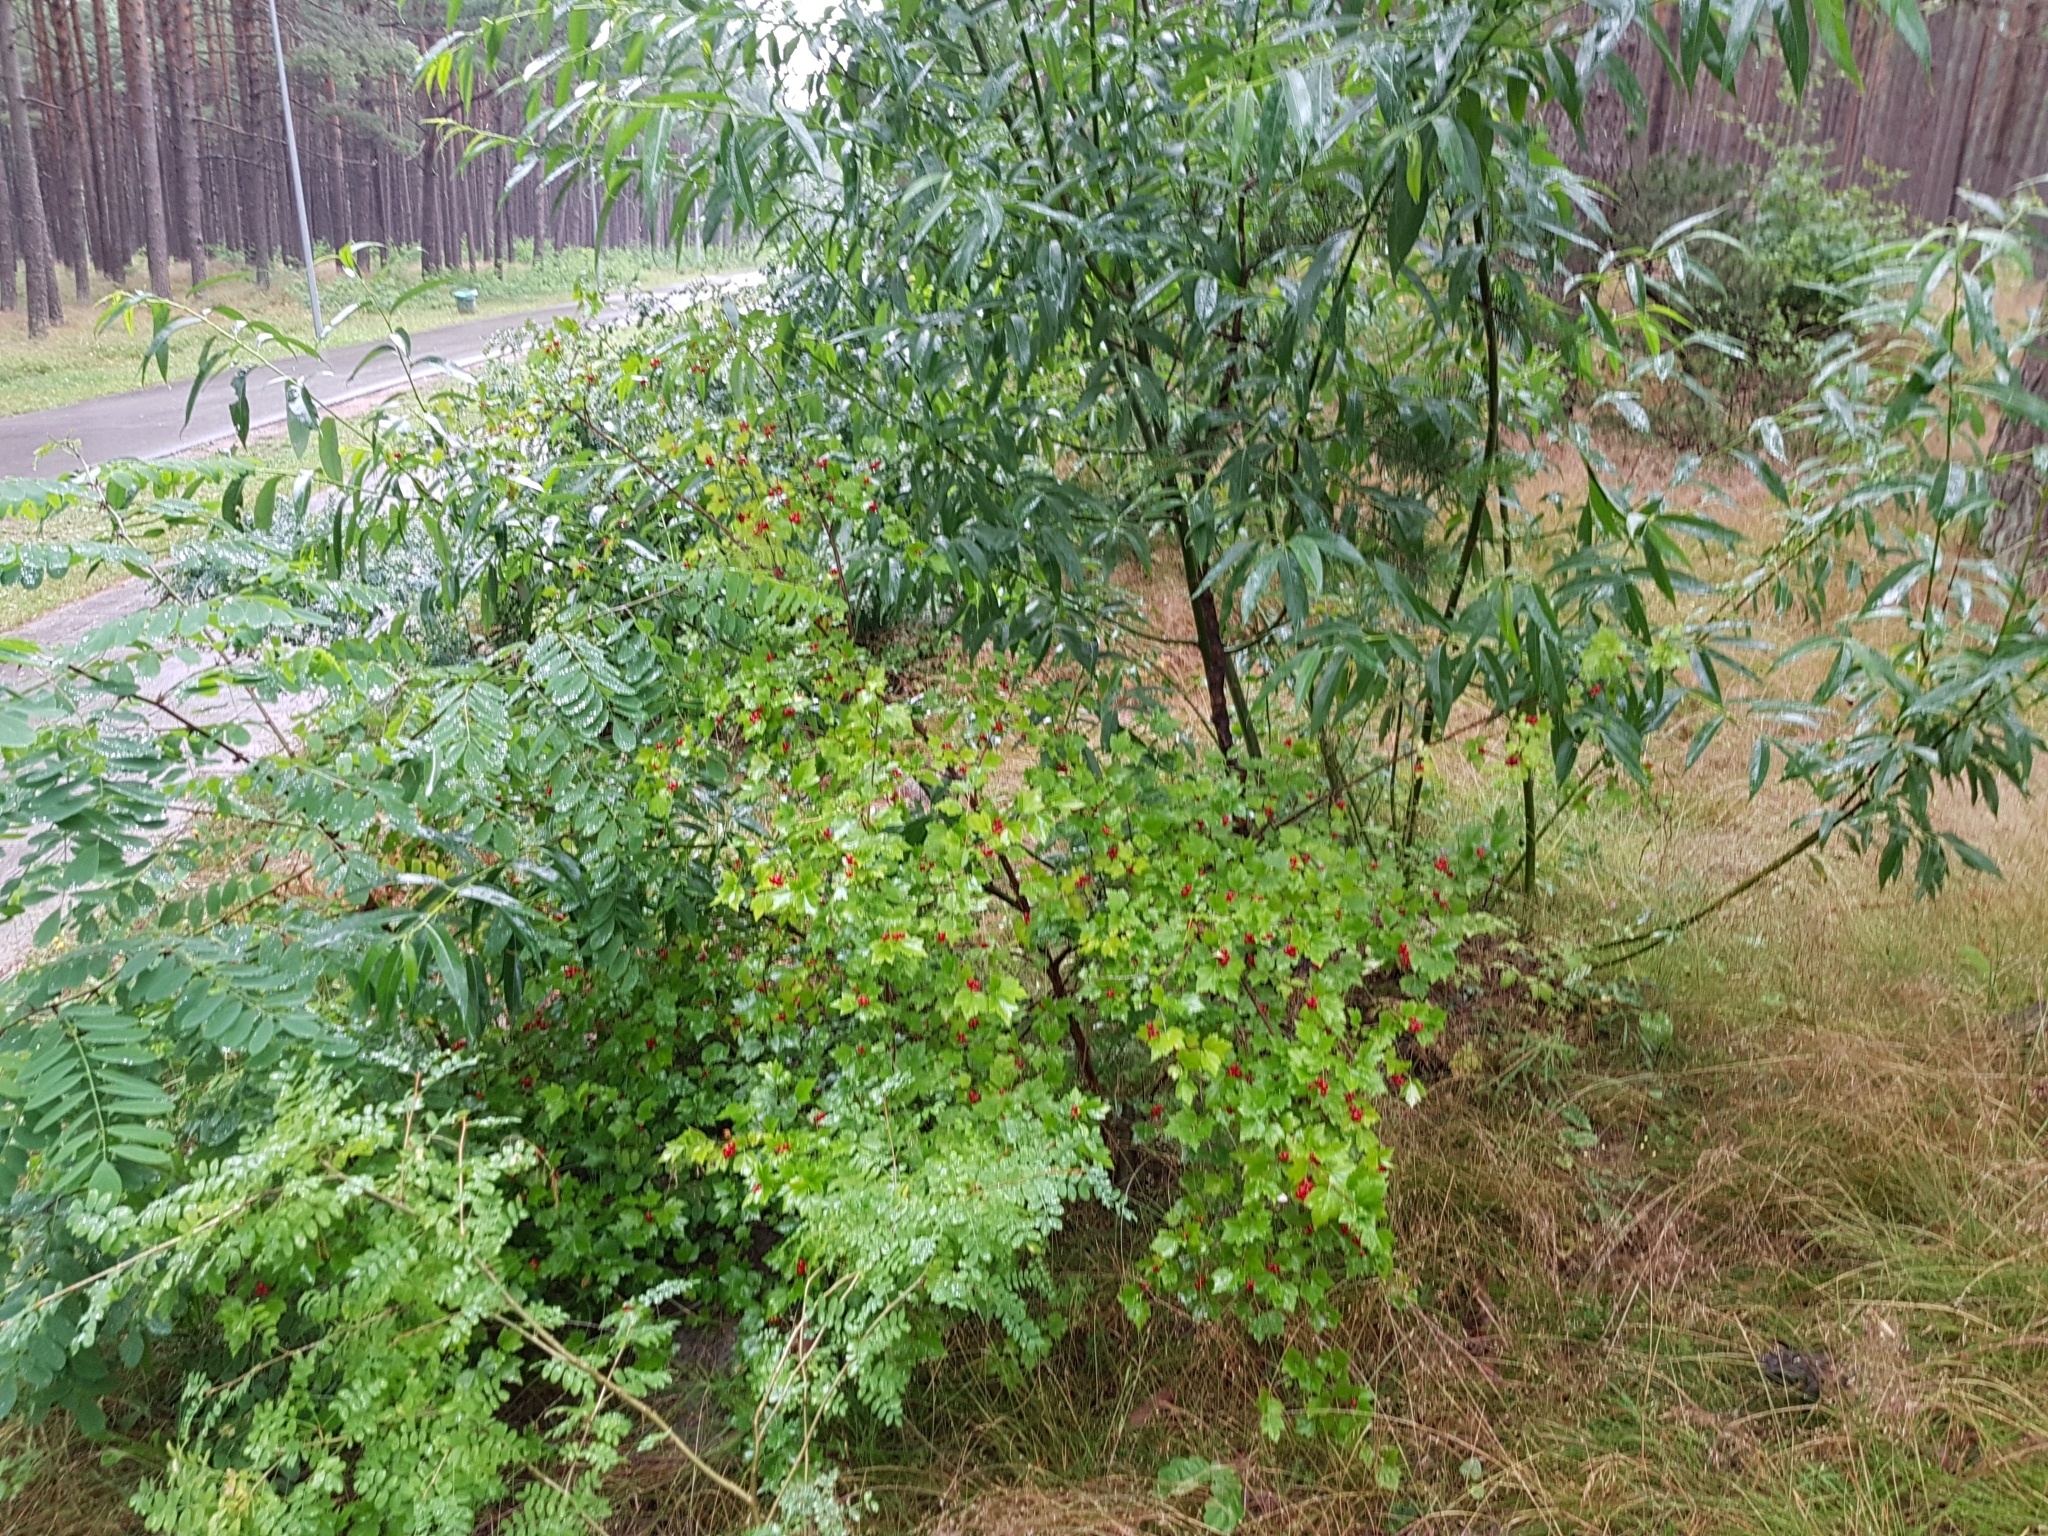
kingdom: Plantae
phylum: Tracheophyta
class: Magnoliopsida
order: Saxifragales
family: Grossulariaceae
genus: Ribes
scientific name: Ribes alpinum
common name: Alpine currant
